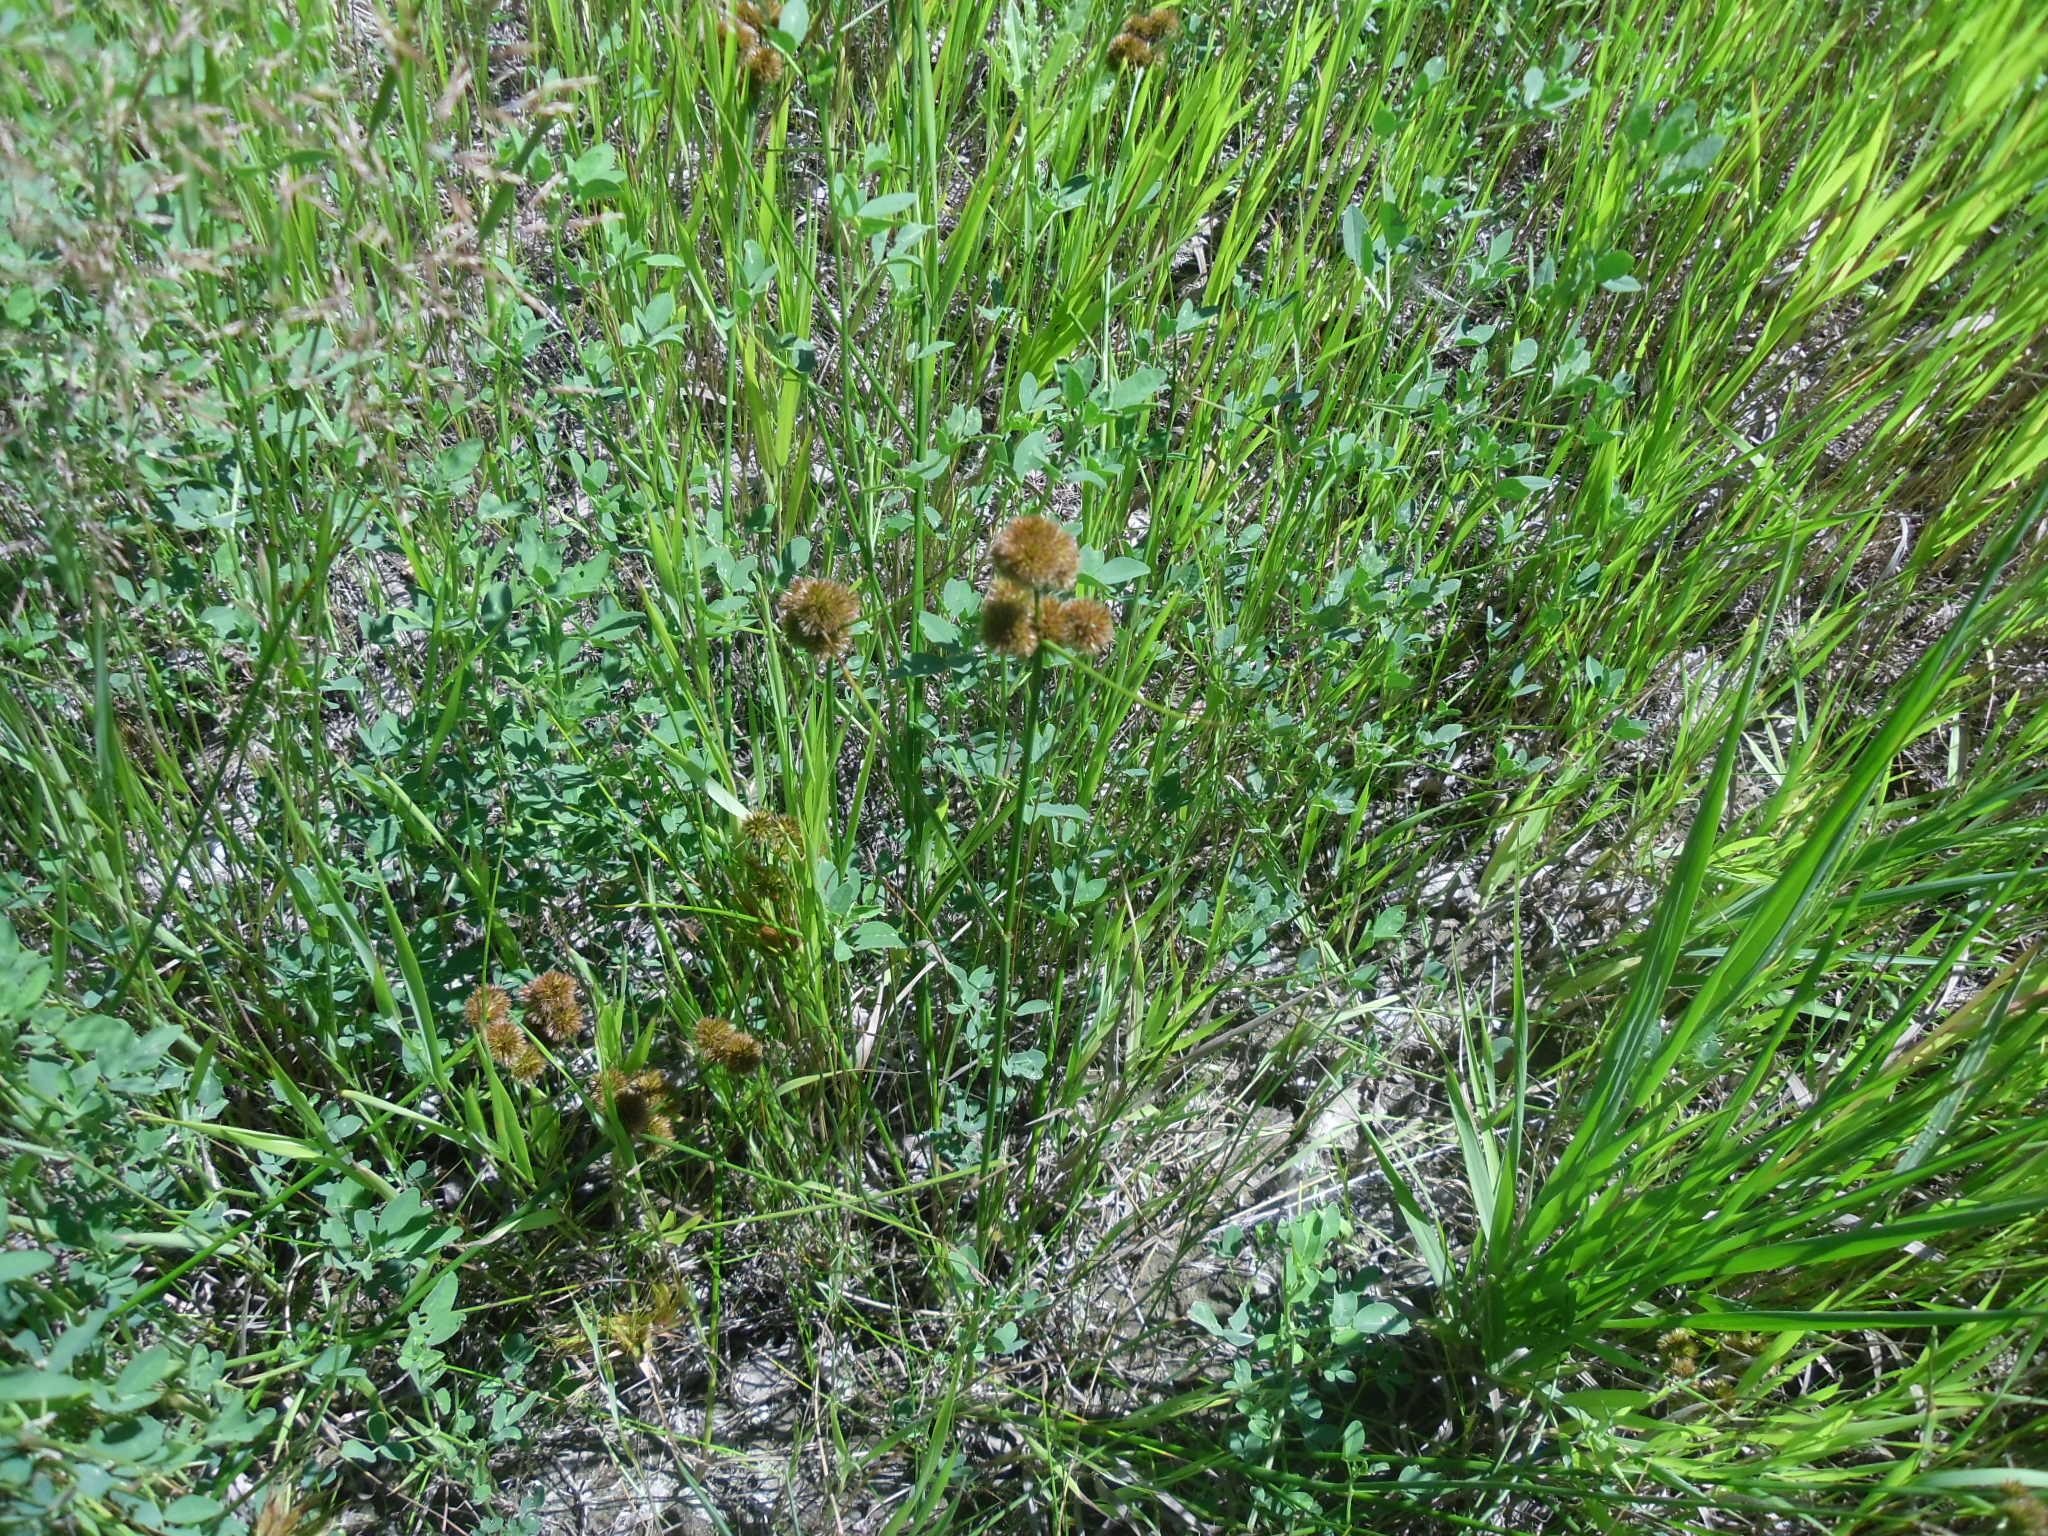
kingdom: Plantae
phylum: Tracheophyta
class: Liliopsida
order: Poales
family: Juncaceae
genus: Juncus
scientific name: Juncus torreyi
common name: Torrey's rush
